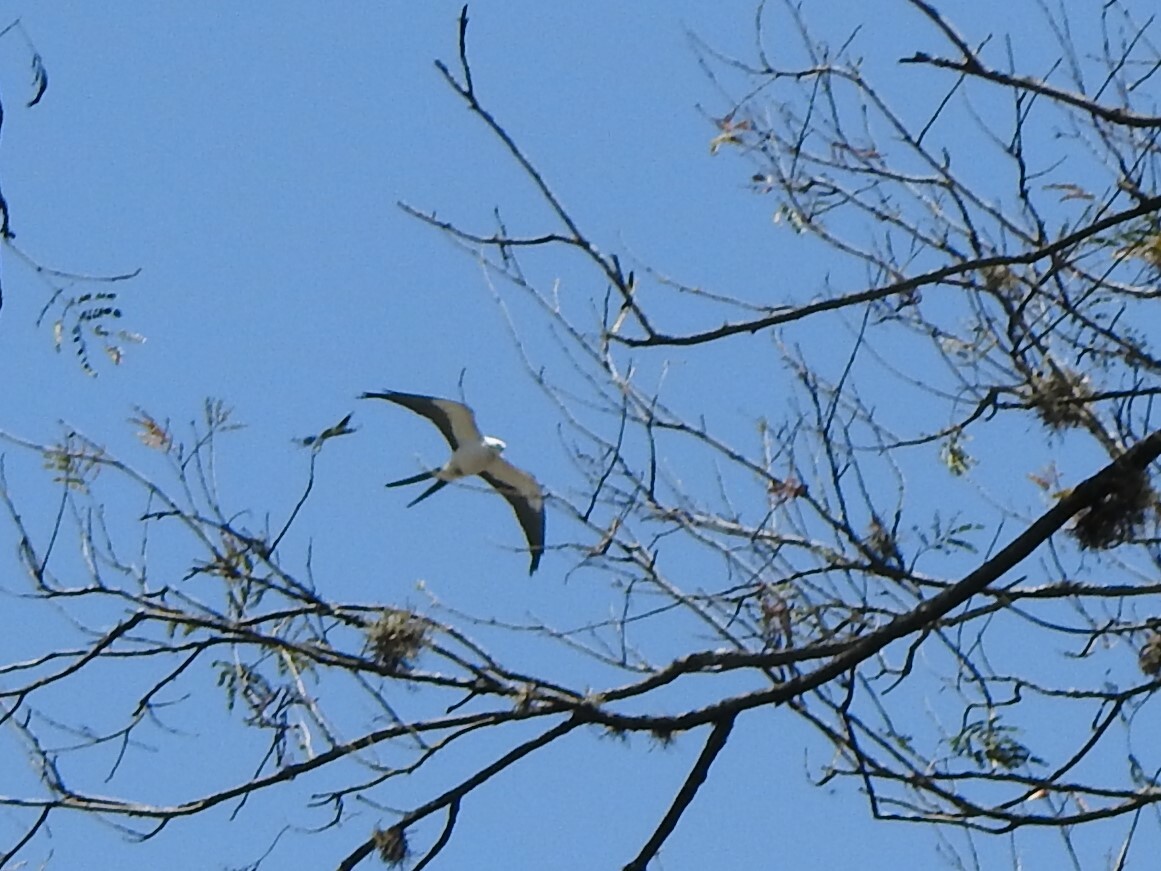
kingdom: Animalia
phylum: Chordata
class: Aves
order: Accipitriformes
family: Accipitridae
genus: Elanoides
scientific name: Elanoides forficatus
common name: Swallow-tailed kite
